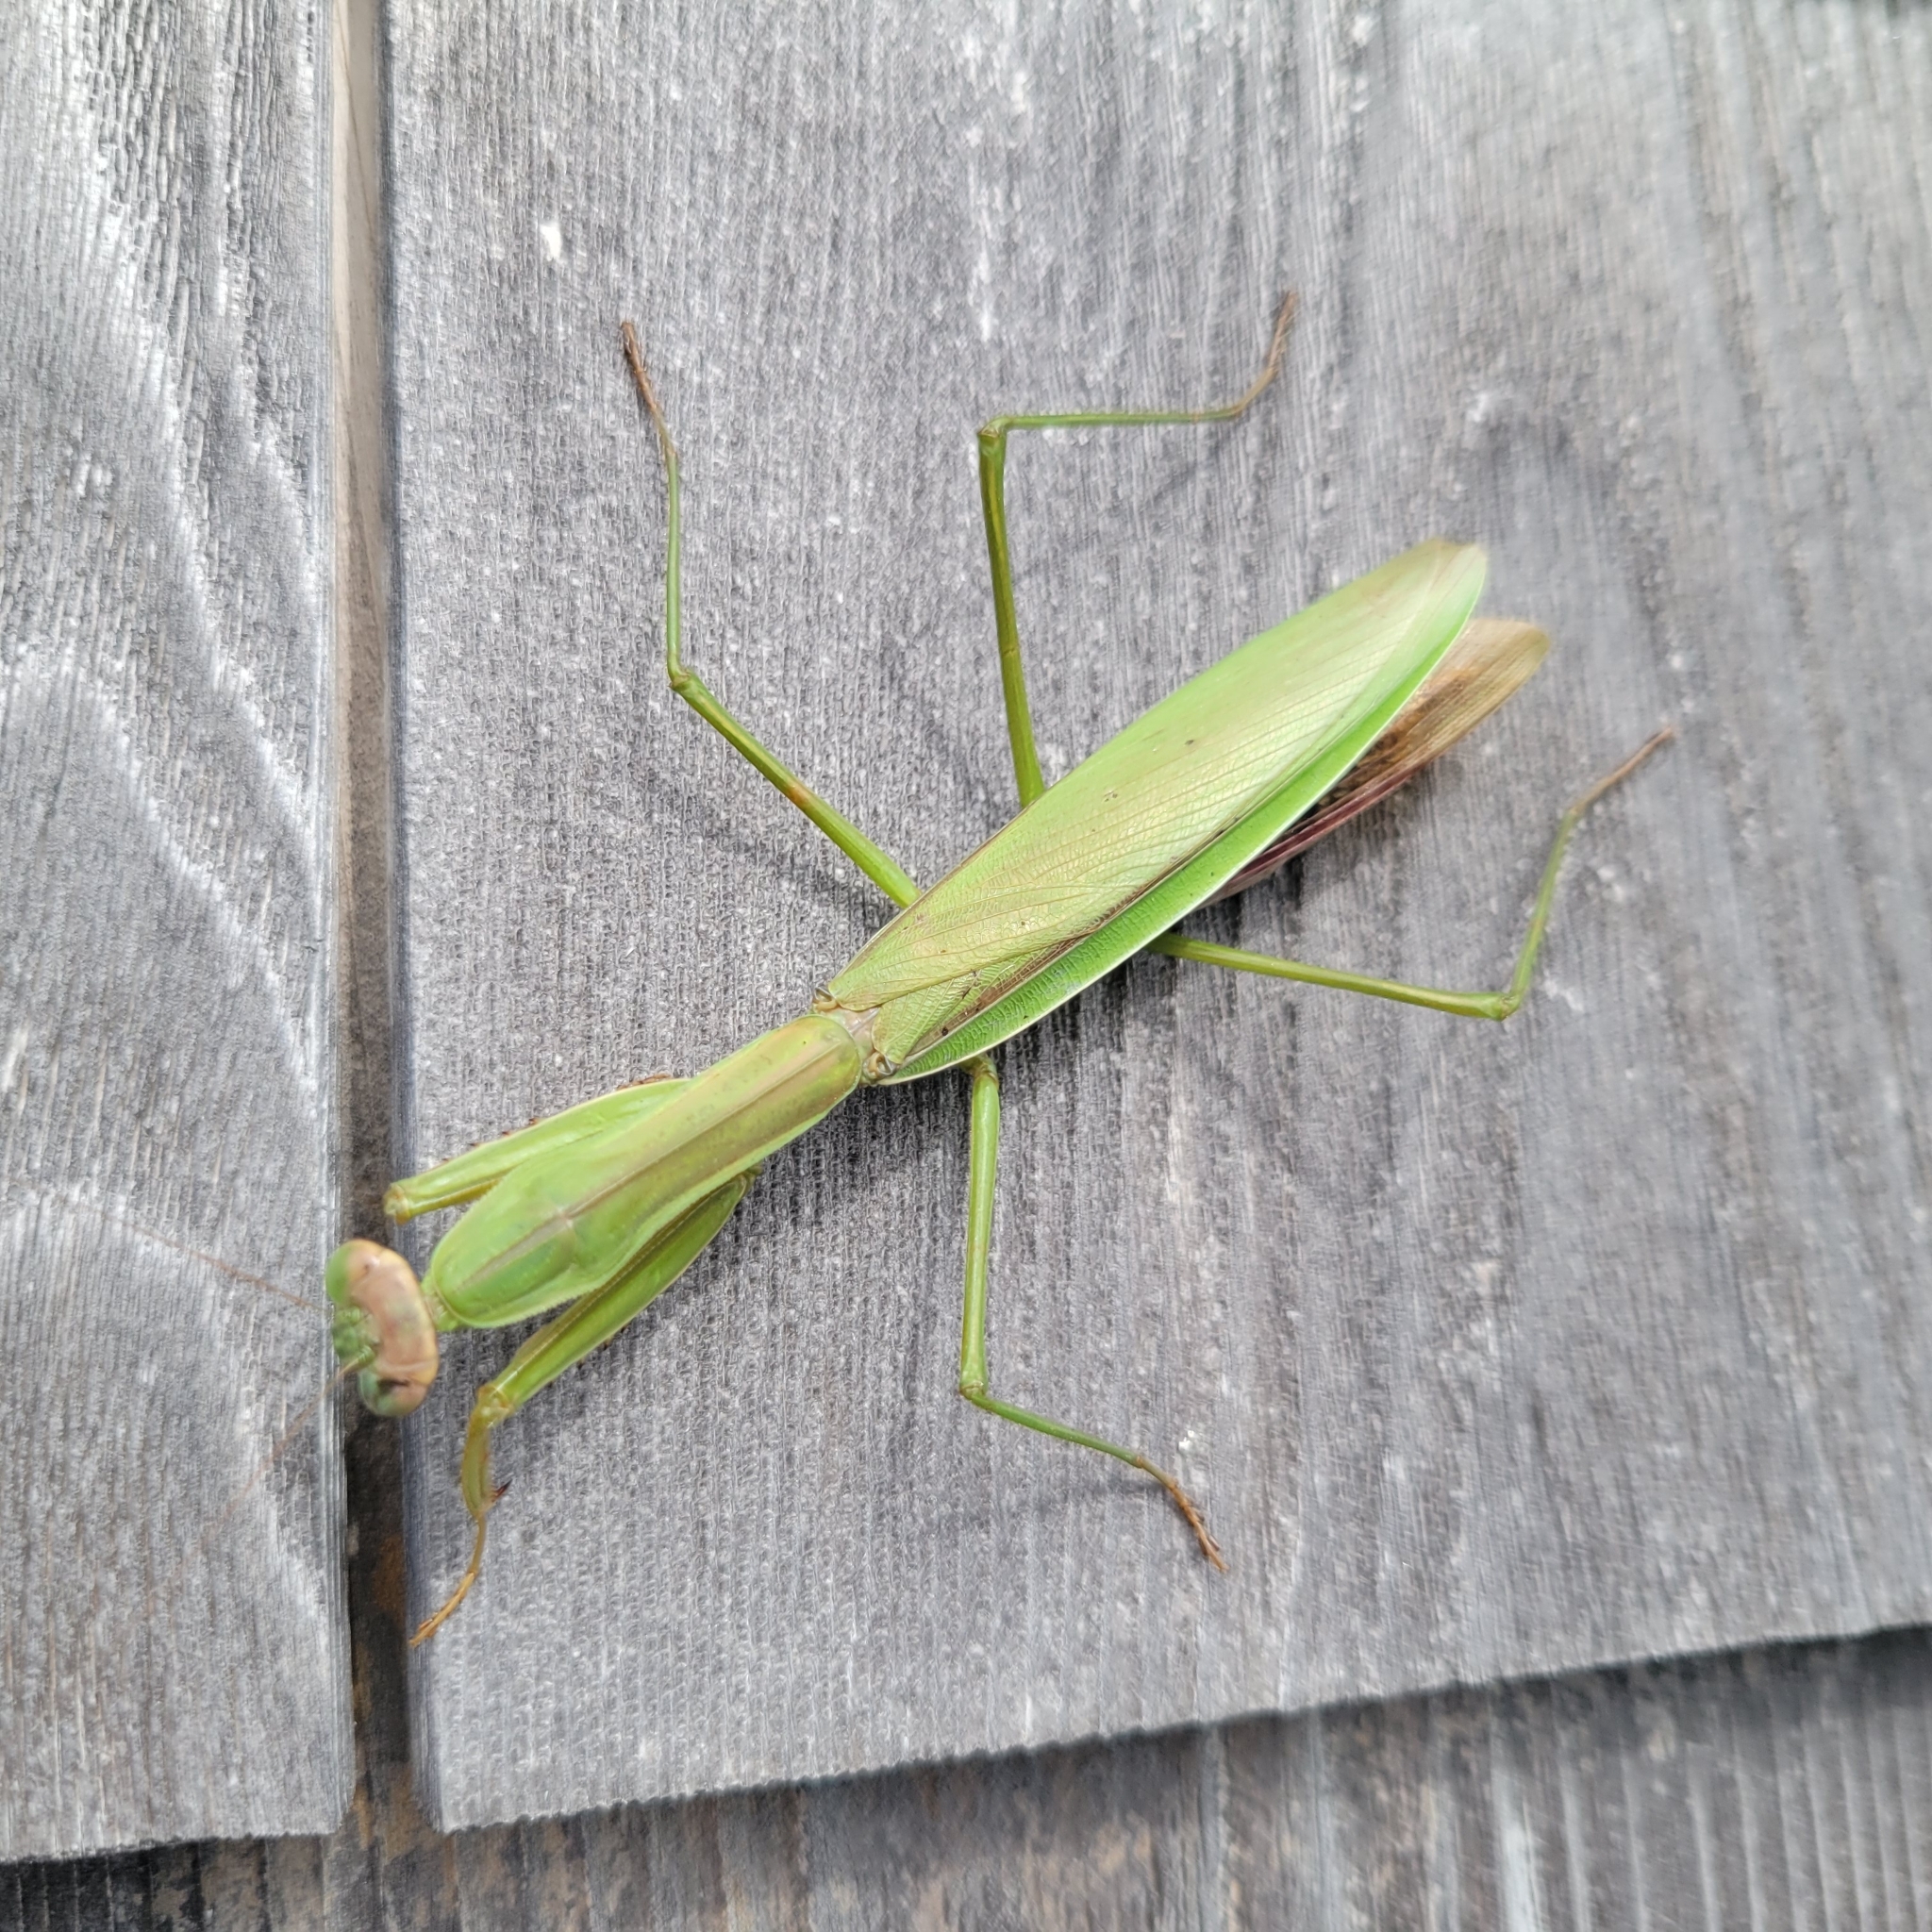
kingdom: Animalia
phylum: Arthropoda
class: Insecta
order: Mantodea
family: Mantidae
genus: Tenodera
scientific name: Tenodera sinensis
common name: Chinese mantis
